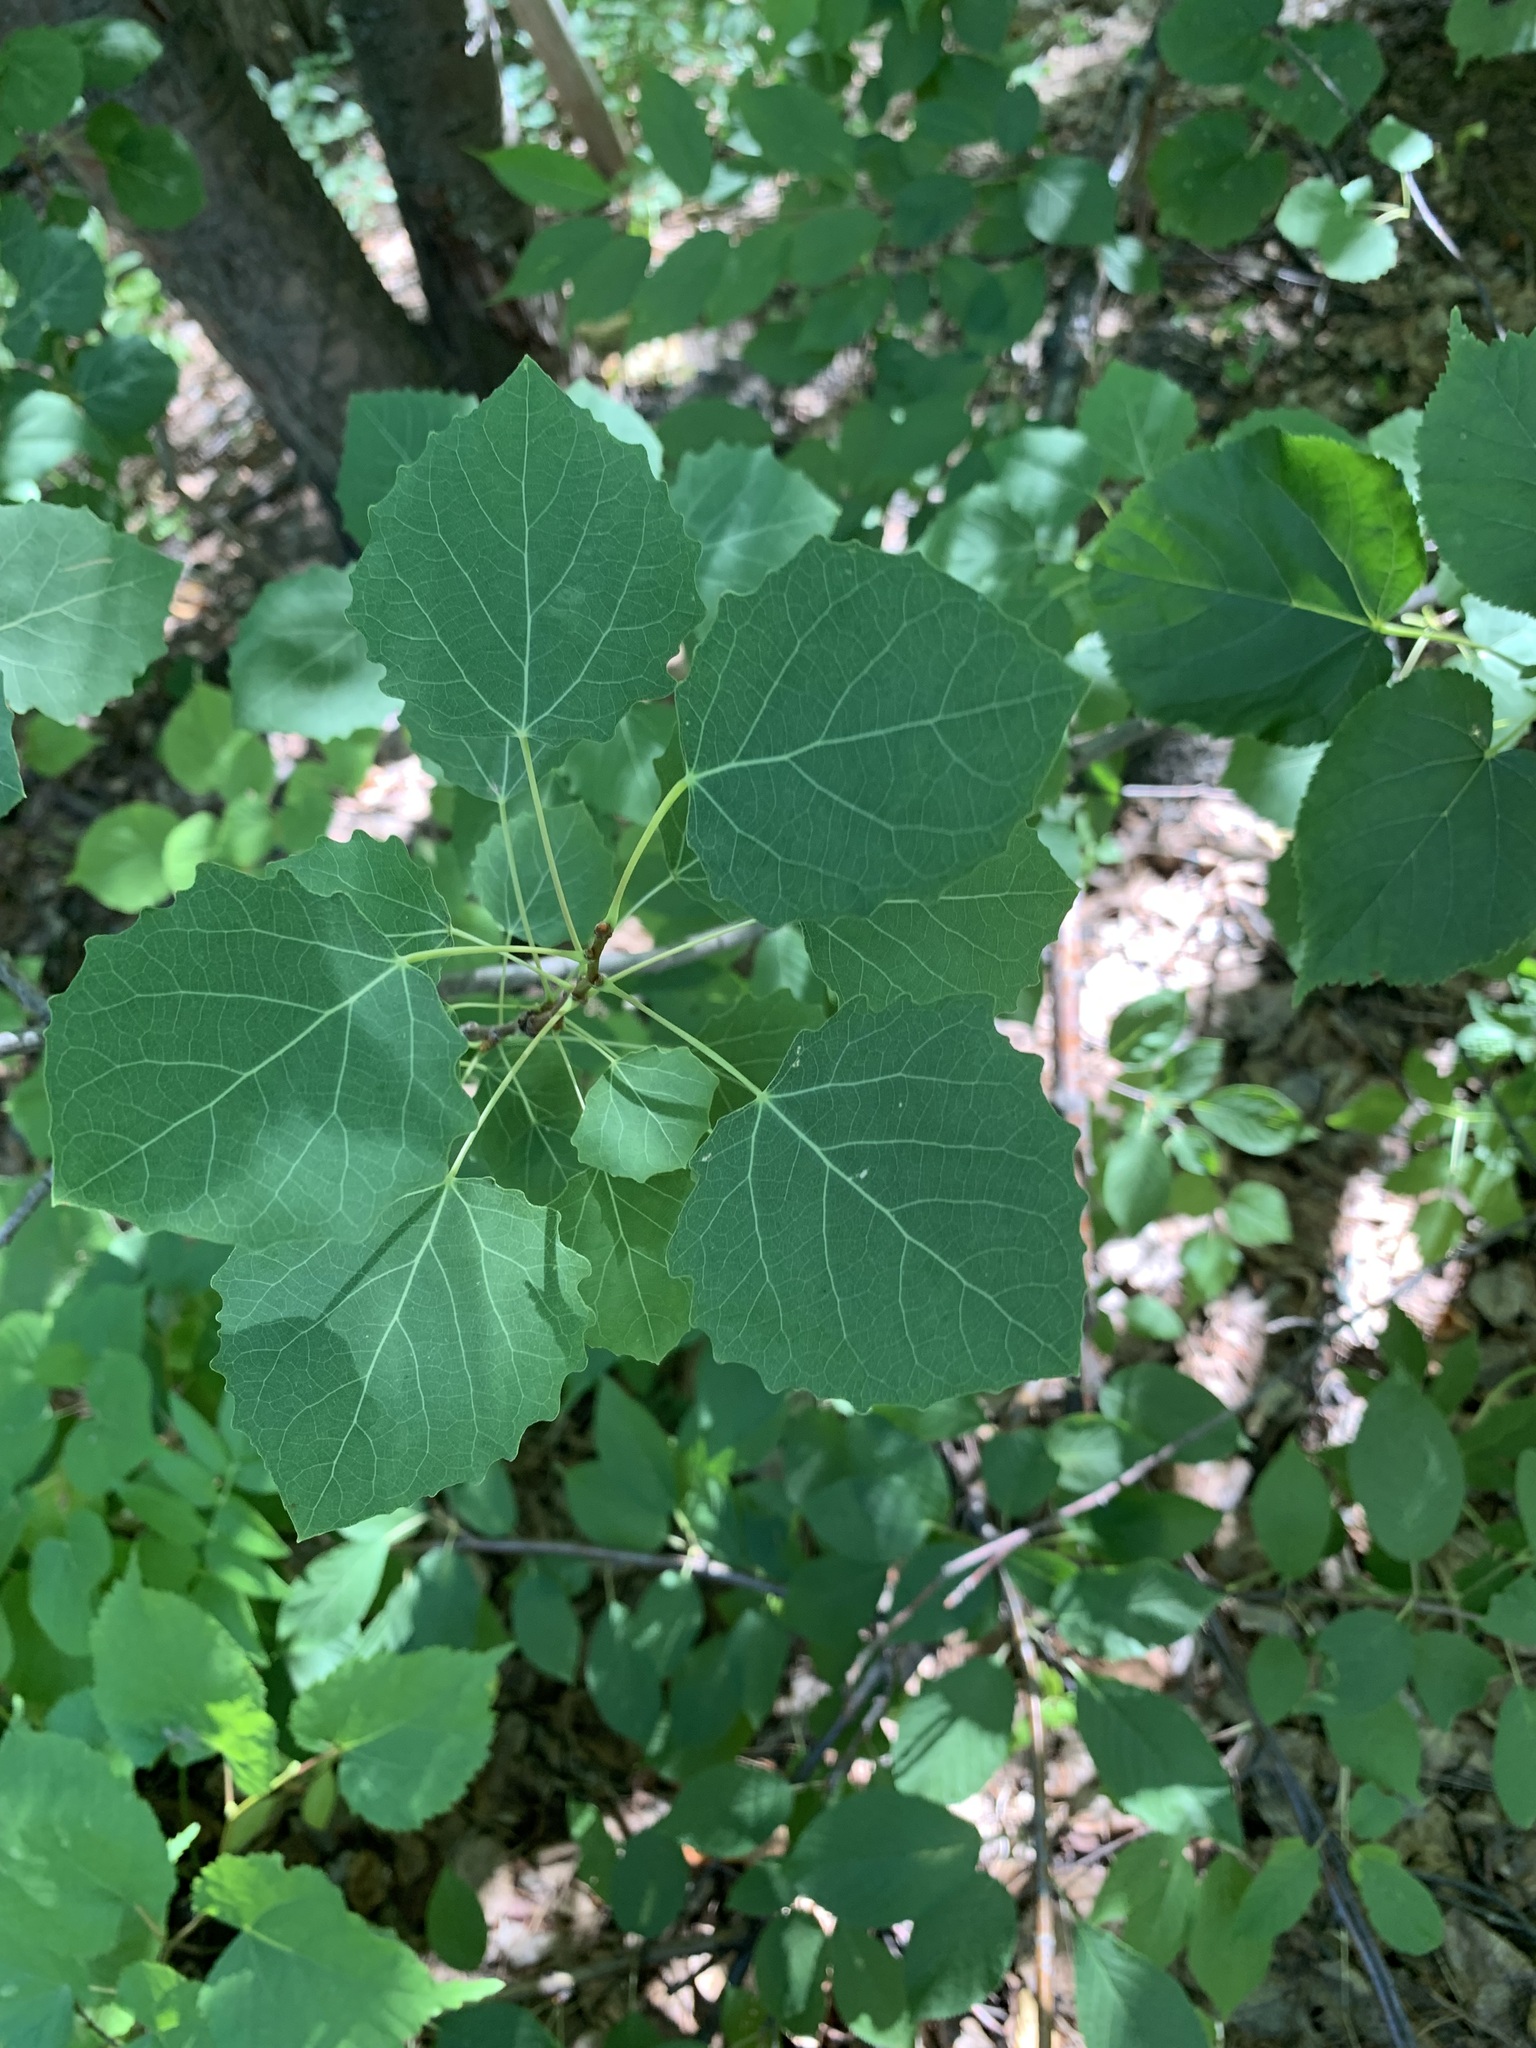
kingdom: Plantae
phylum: Tracheophyta
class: Magnoliopsida
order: Malpighiales
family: Salicaceae
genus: Populus
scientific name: Populus tremula
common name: European aspen
